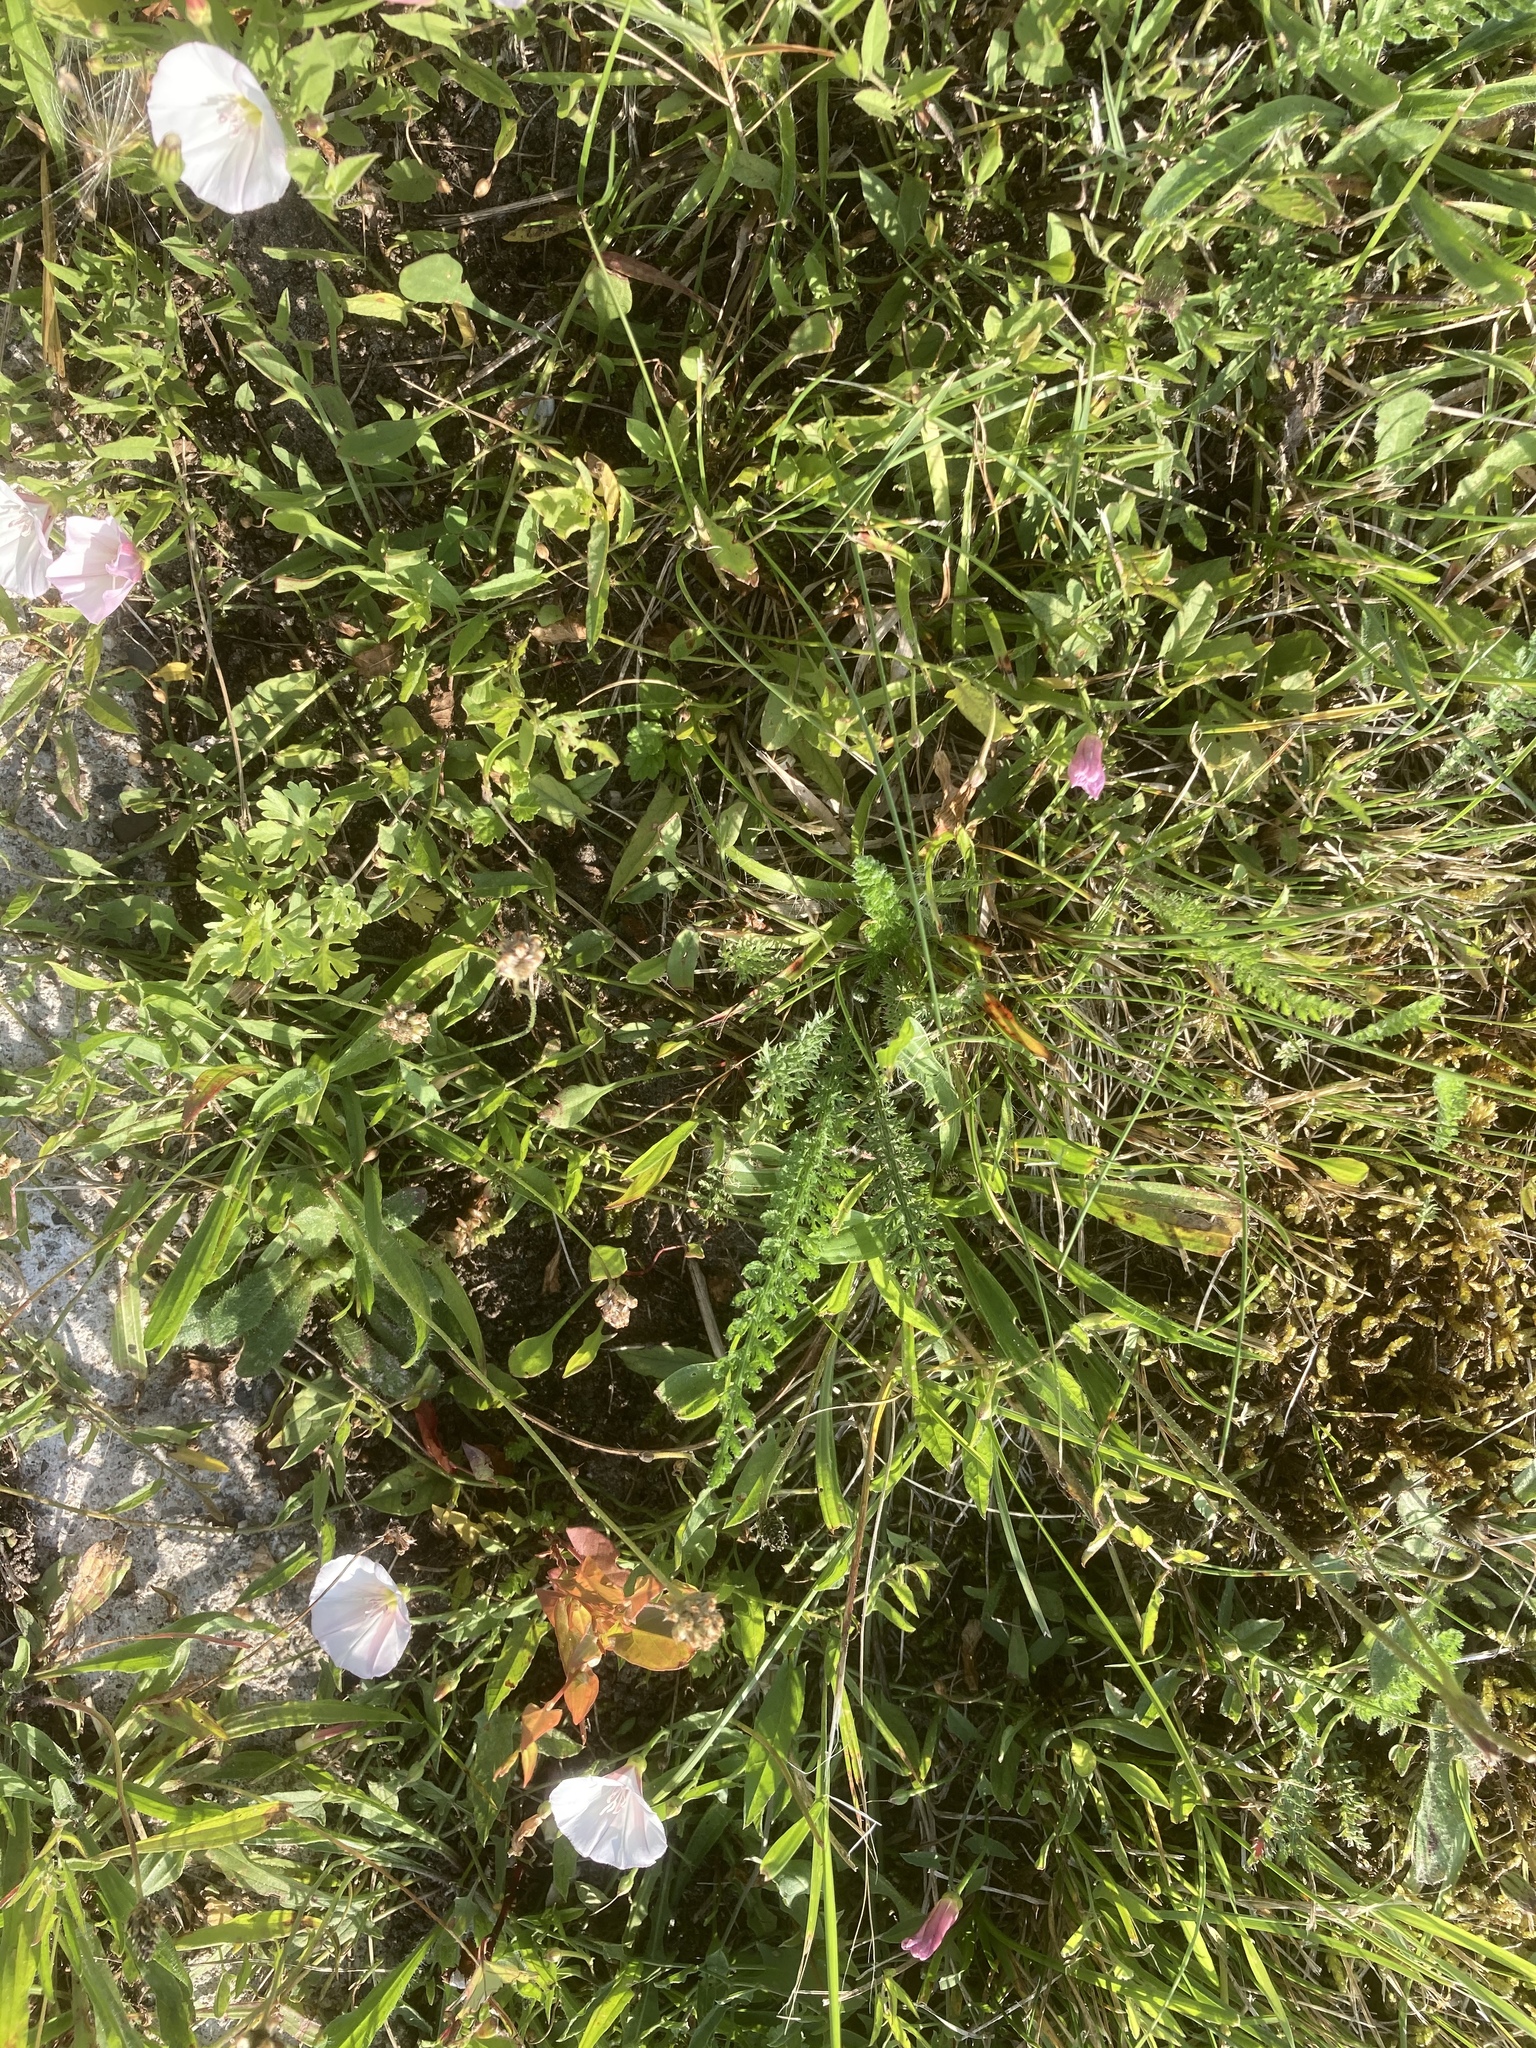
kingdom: Plantae
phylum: Tracheophyta
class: Magnoliopsida
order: Solanales
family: Convolvulaceae
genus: Convolvulus
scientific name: Convolvulus arvensis
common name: Field bindweed
